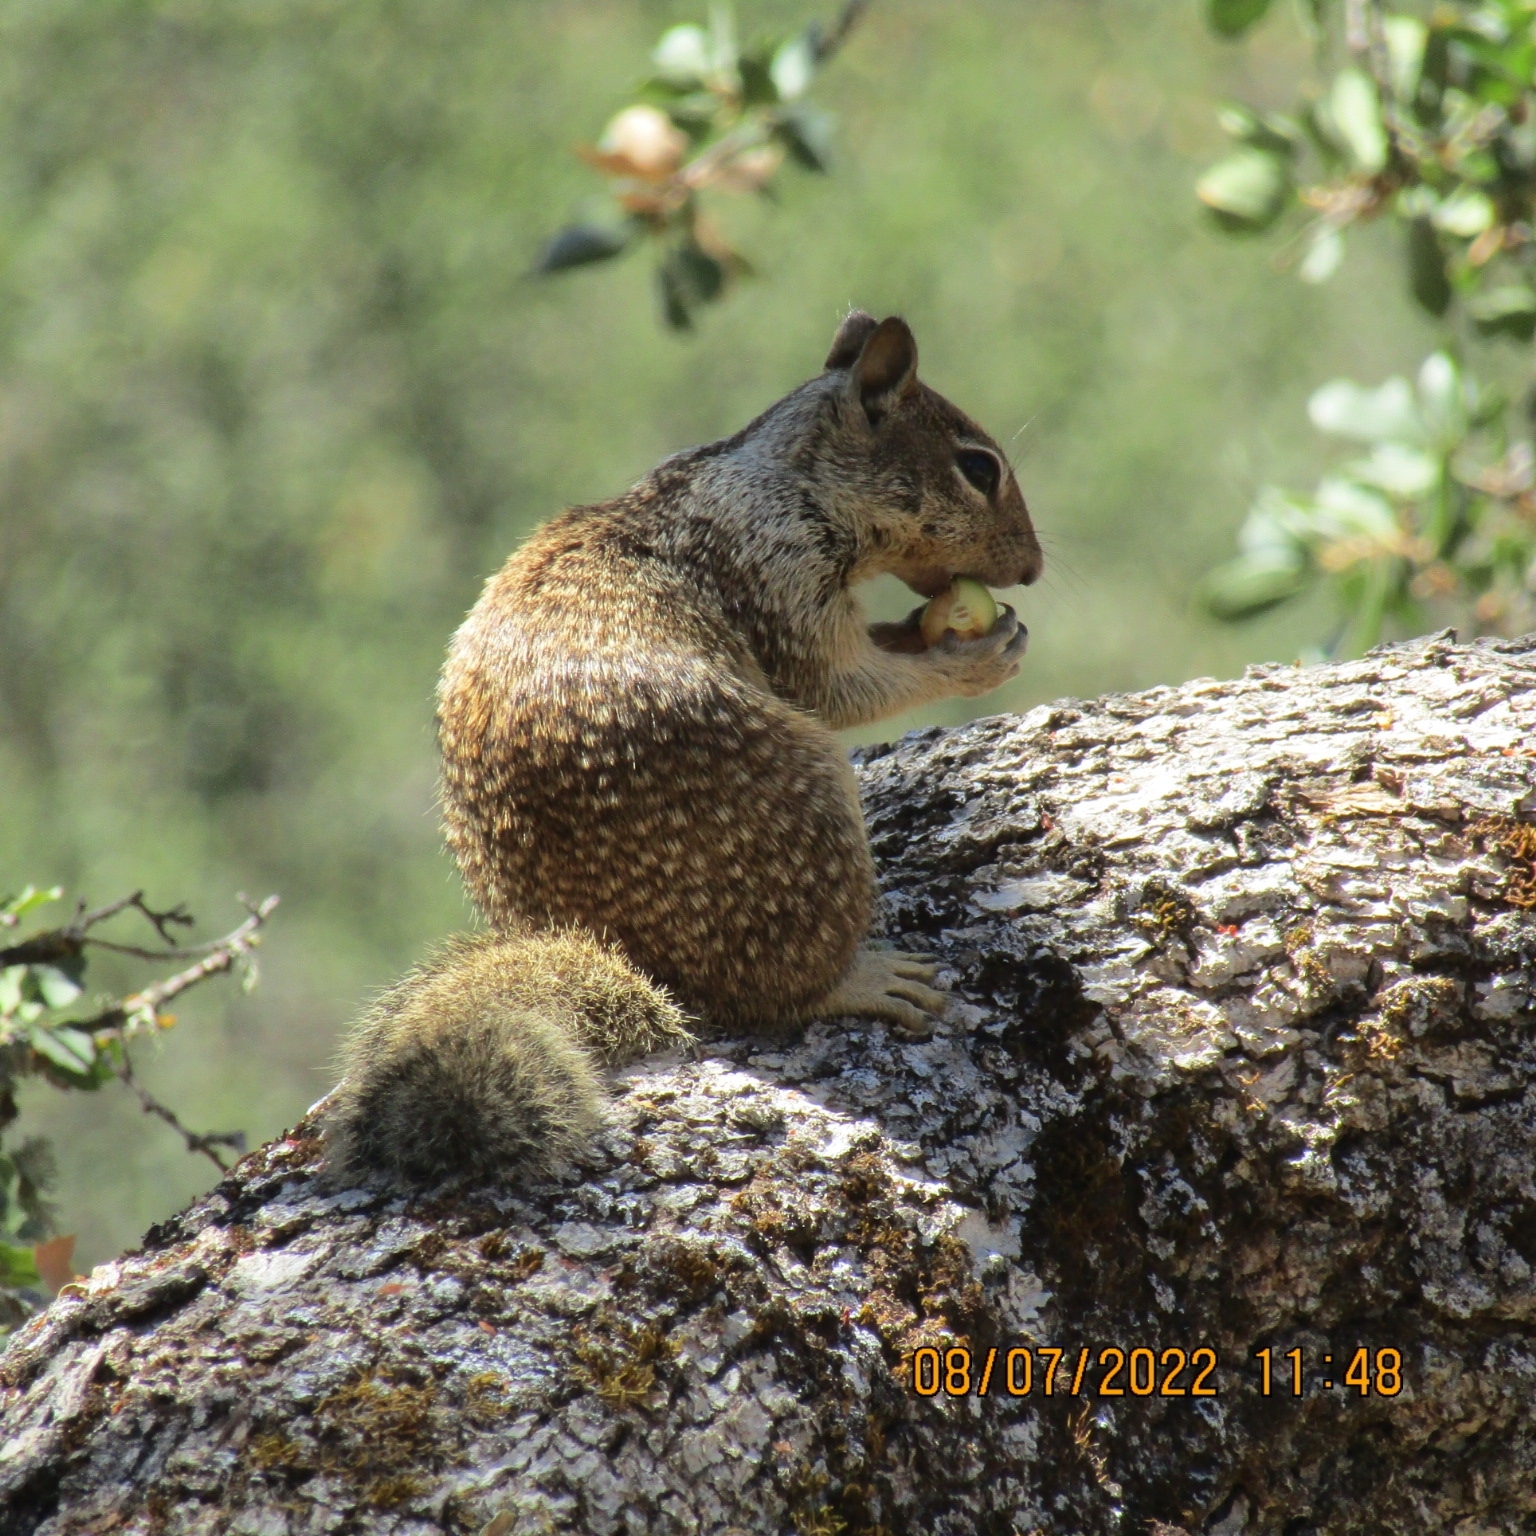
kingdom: Animalia
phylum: Chordata
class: Mammalia
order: Rodentia
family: Sciuridae
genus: Otospermophilus
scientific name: Otospermophilus beecheyi
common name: California ground squirrel
